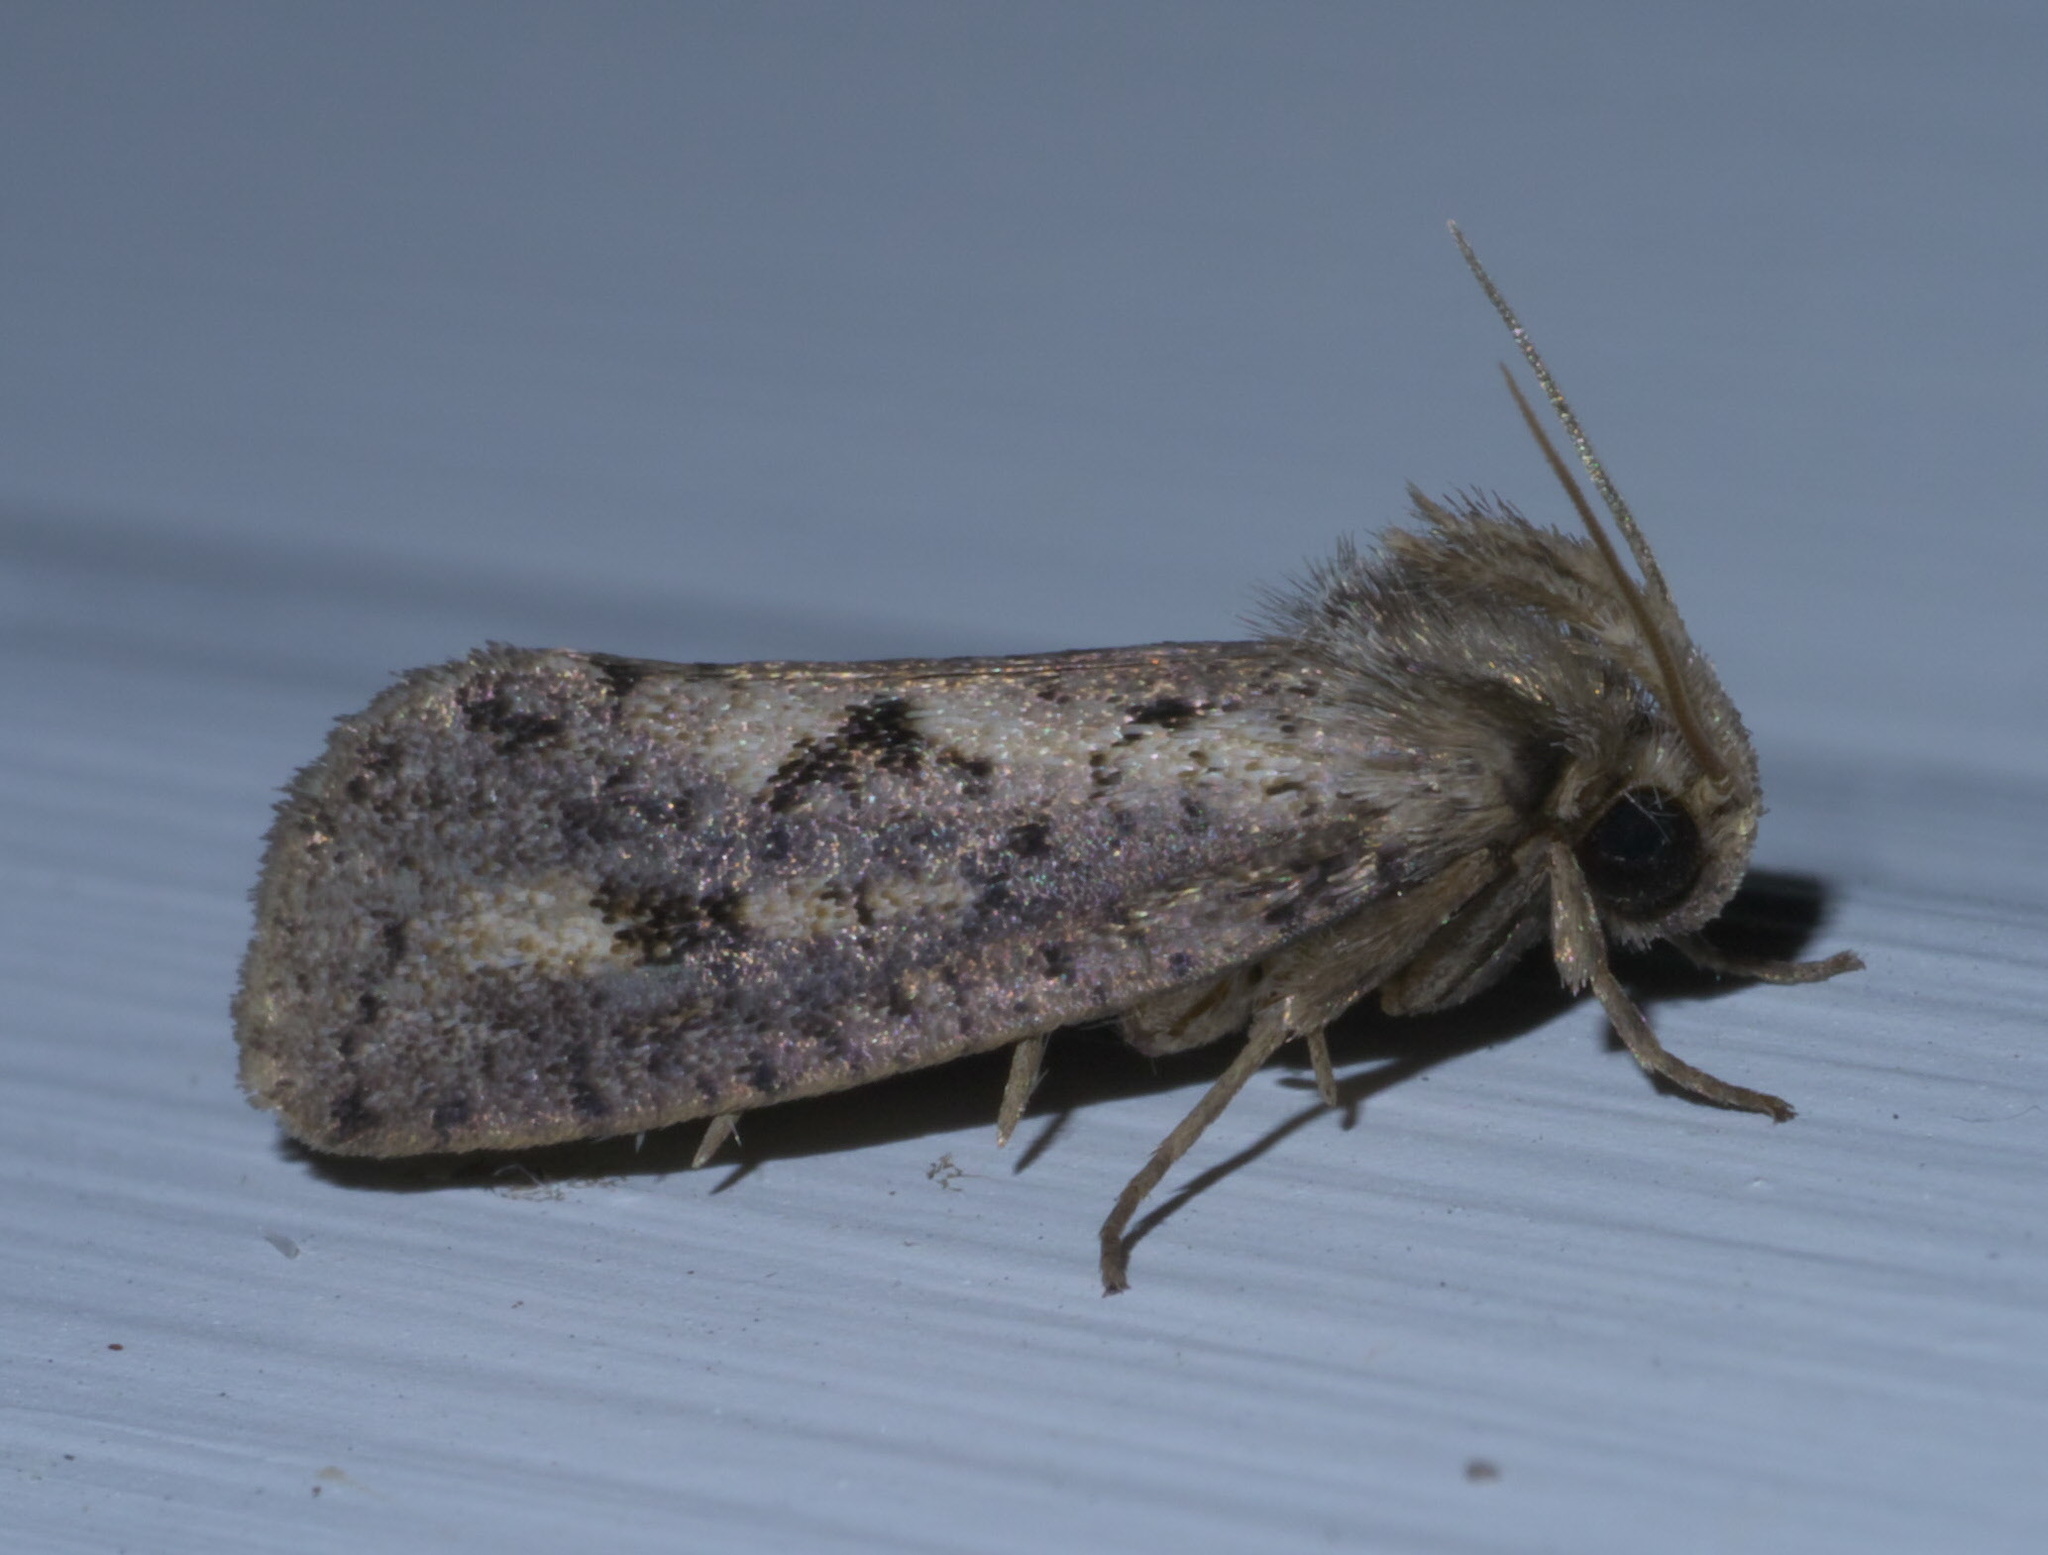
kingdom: Animalia
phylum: Arthropoda
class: Insecta
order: Lepidoptera
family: Tineidae
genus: Acrolophus
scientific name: Acrolophus popeanella
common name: Clemens' grass tubeworm moth
